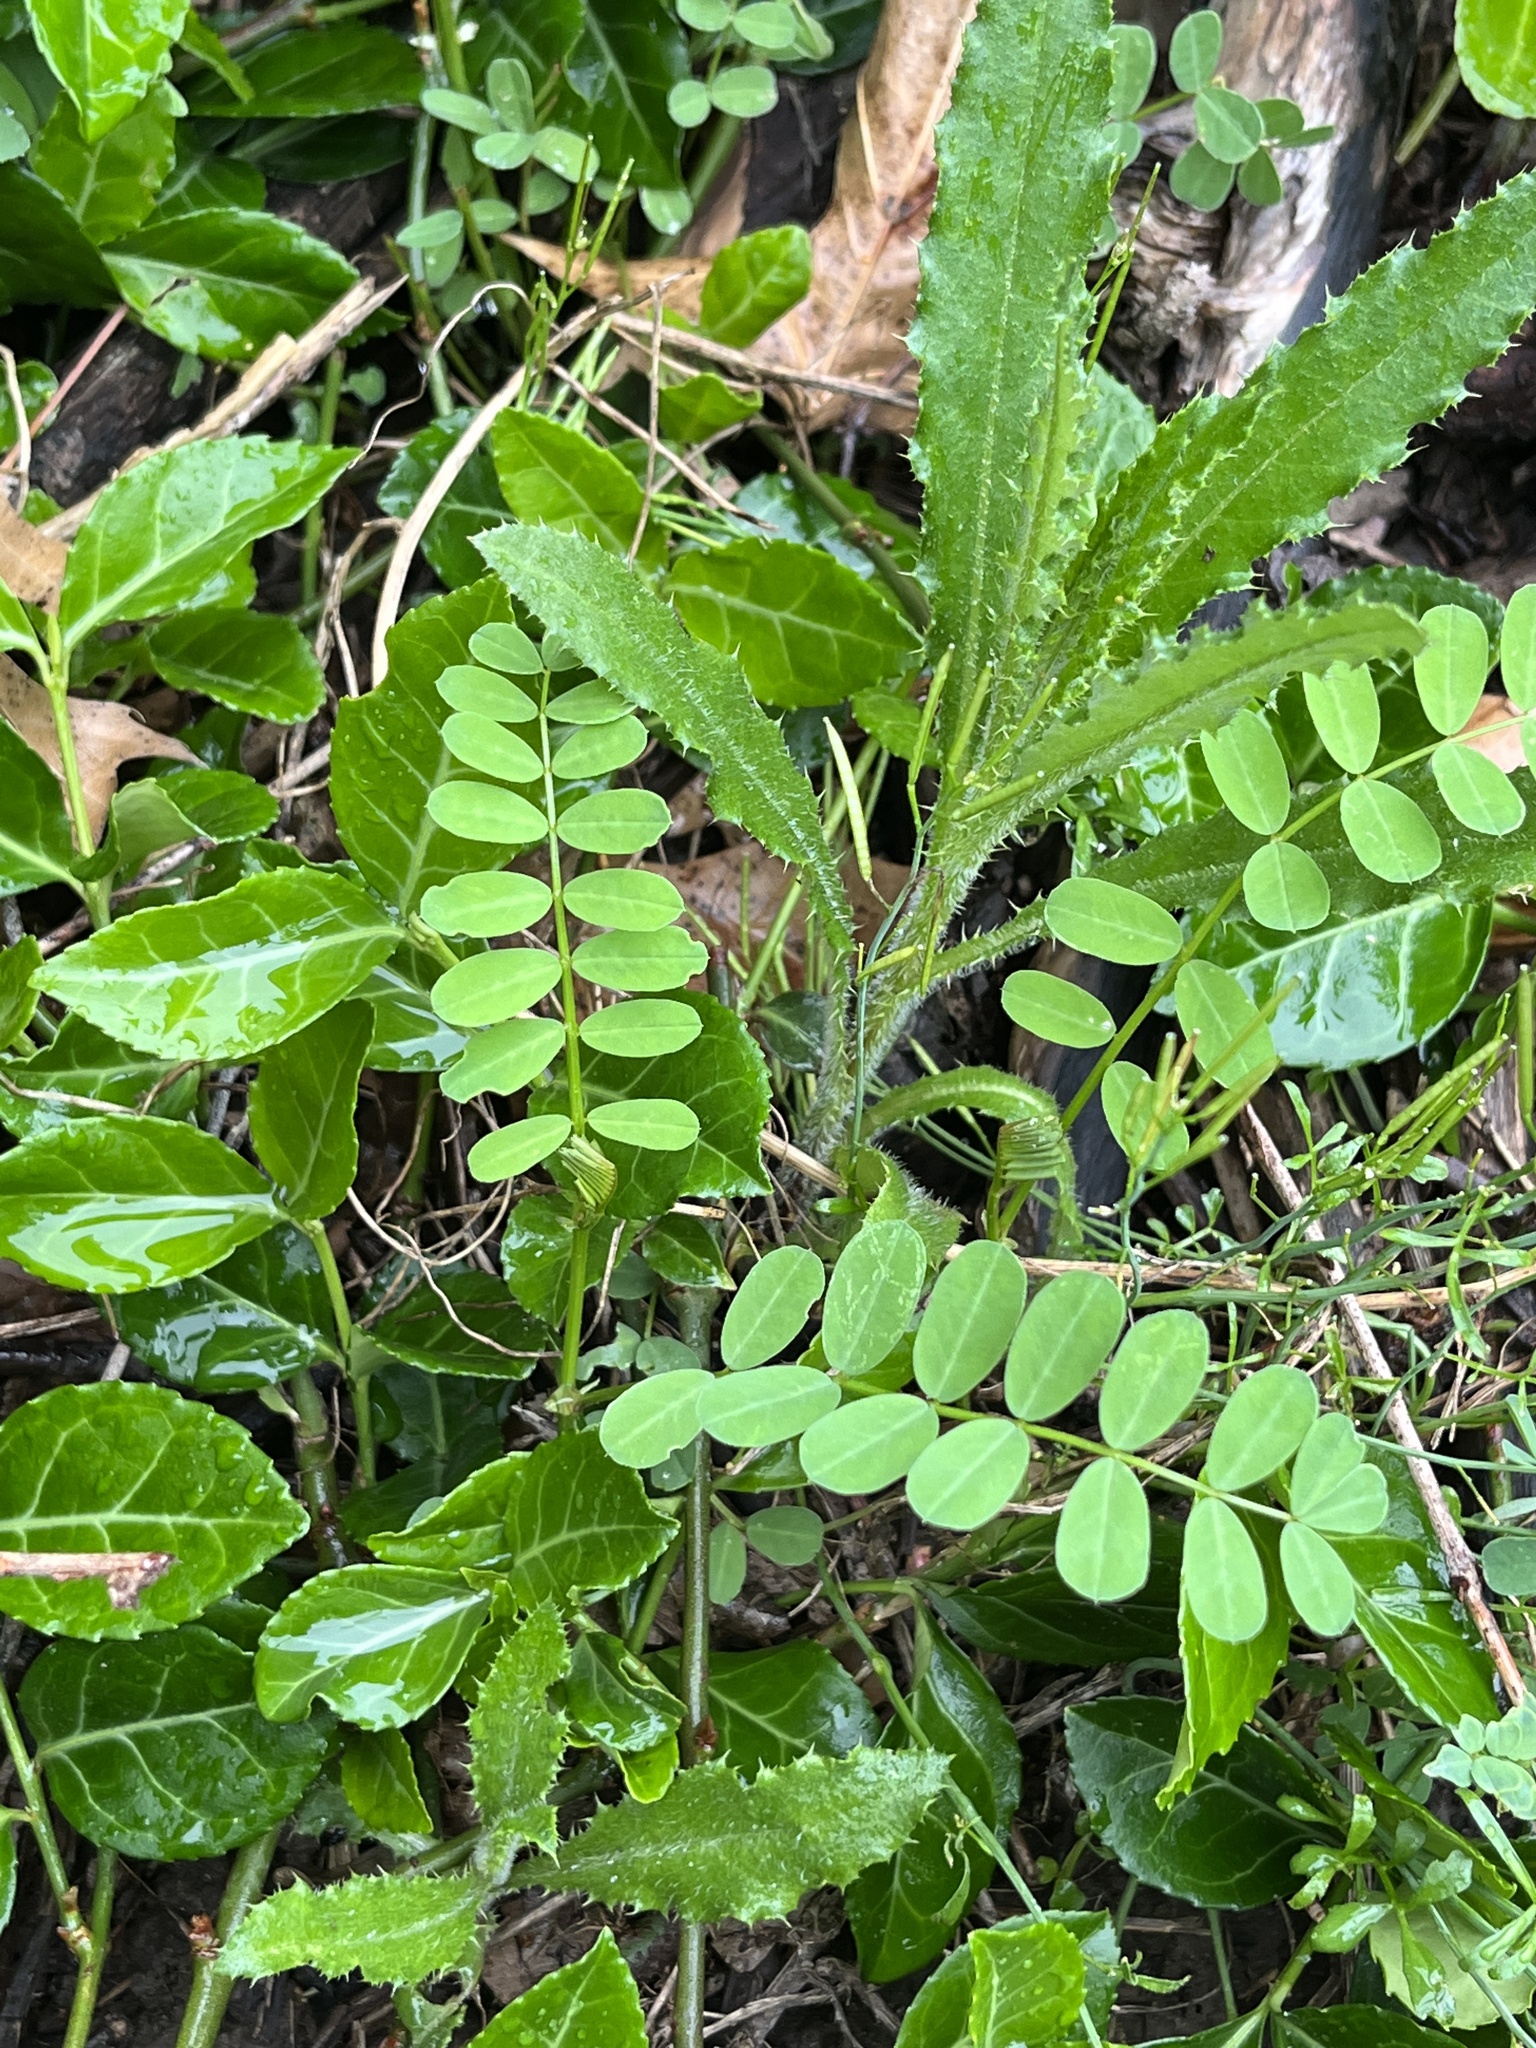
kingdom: Plantae
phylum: Tracheophyta
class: Magnoliopsida
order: Fabales
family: Fabaceae
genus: Coronilla
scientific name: Coronilla varia
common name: Crownvetch
